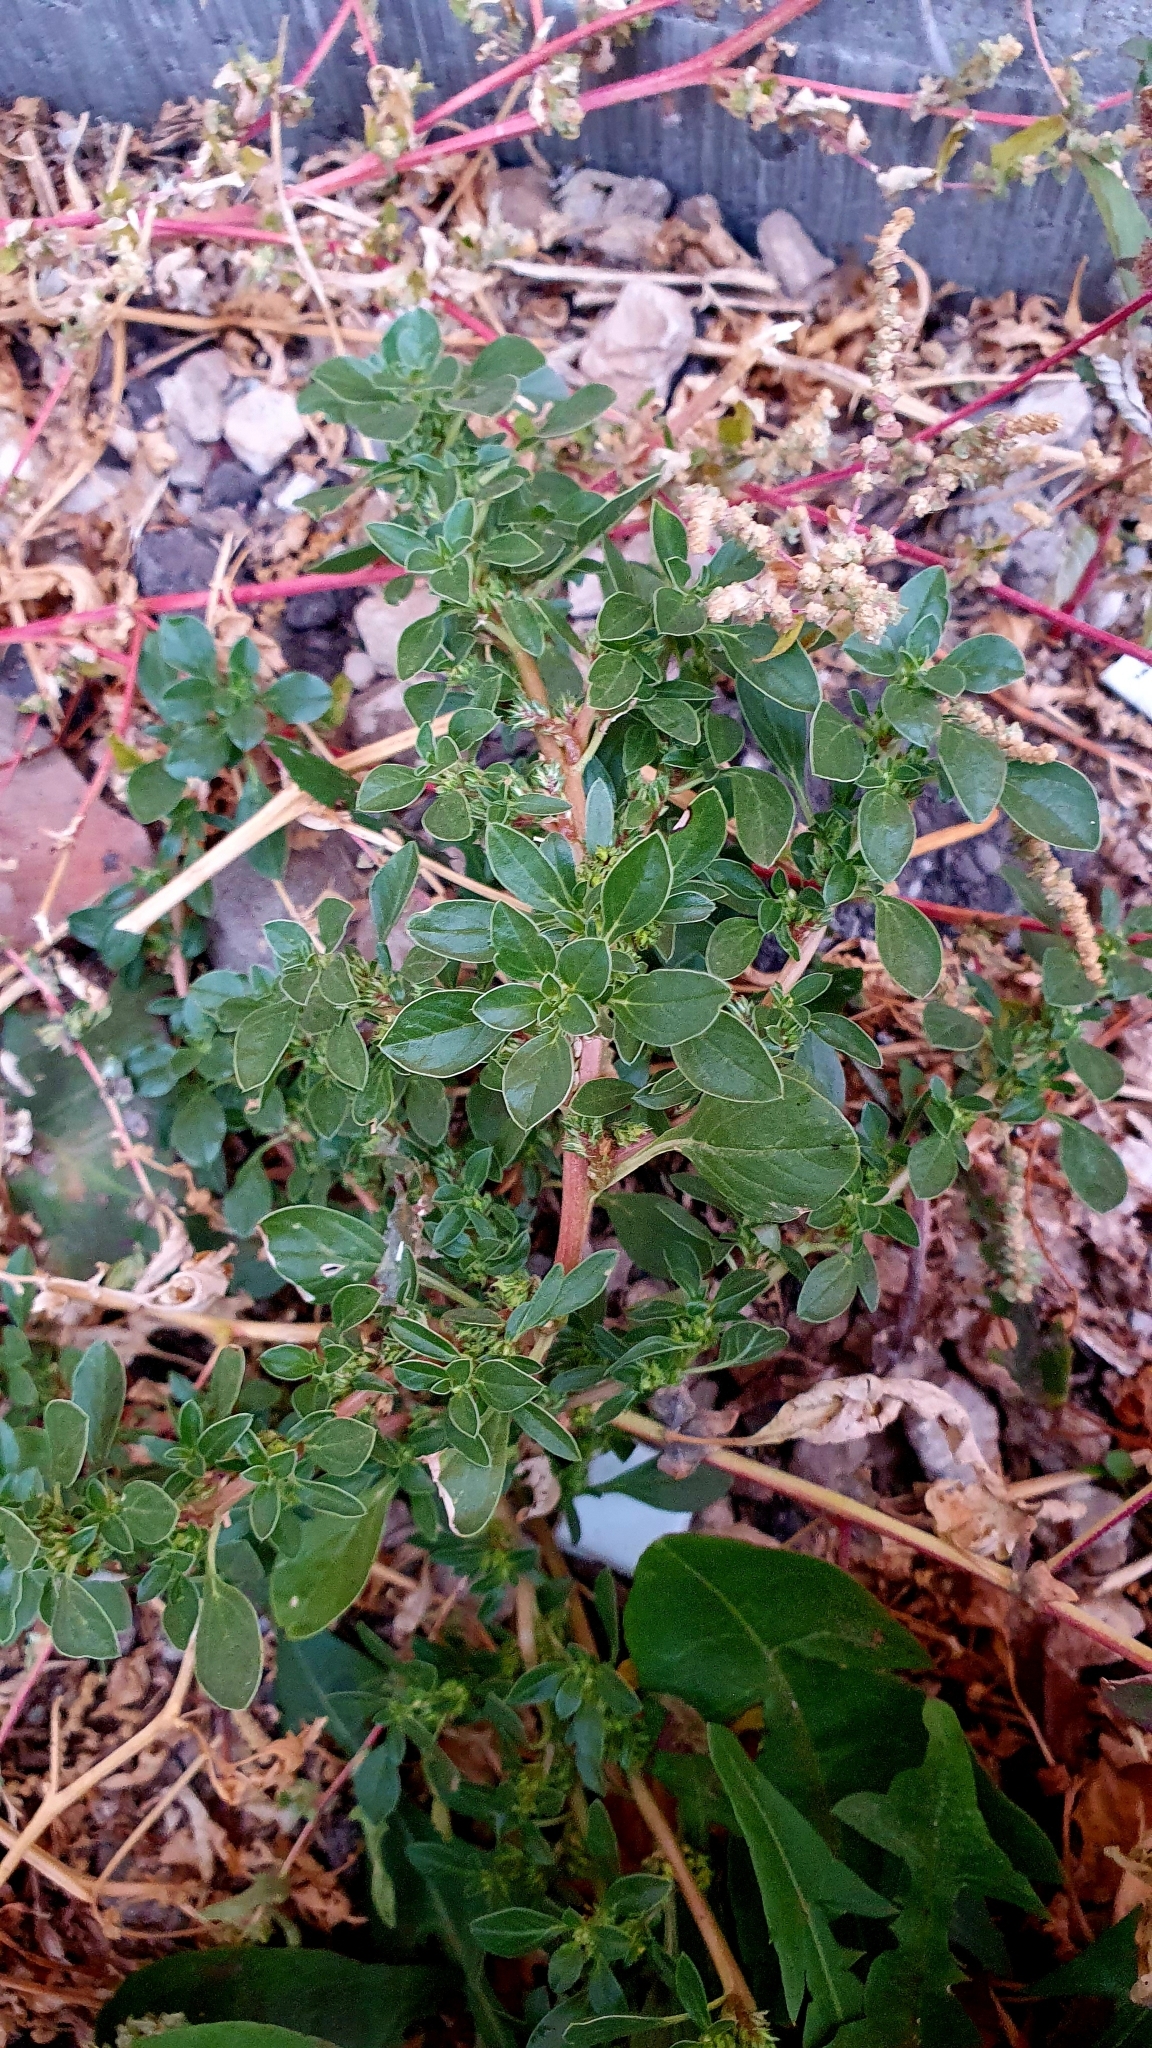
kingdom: Plantae
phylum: Tracheophyta
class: Magnoliopsida
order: Caryophyllales
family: Amaranthaceae
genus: Amaranthus
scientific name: Amaranthus blitoides
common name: Prostrate pigweed
